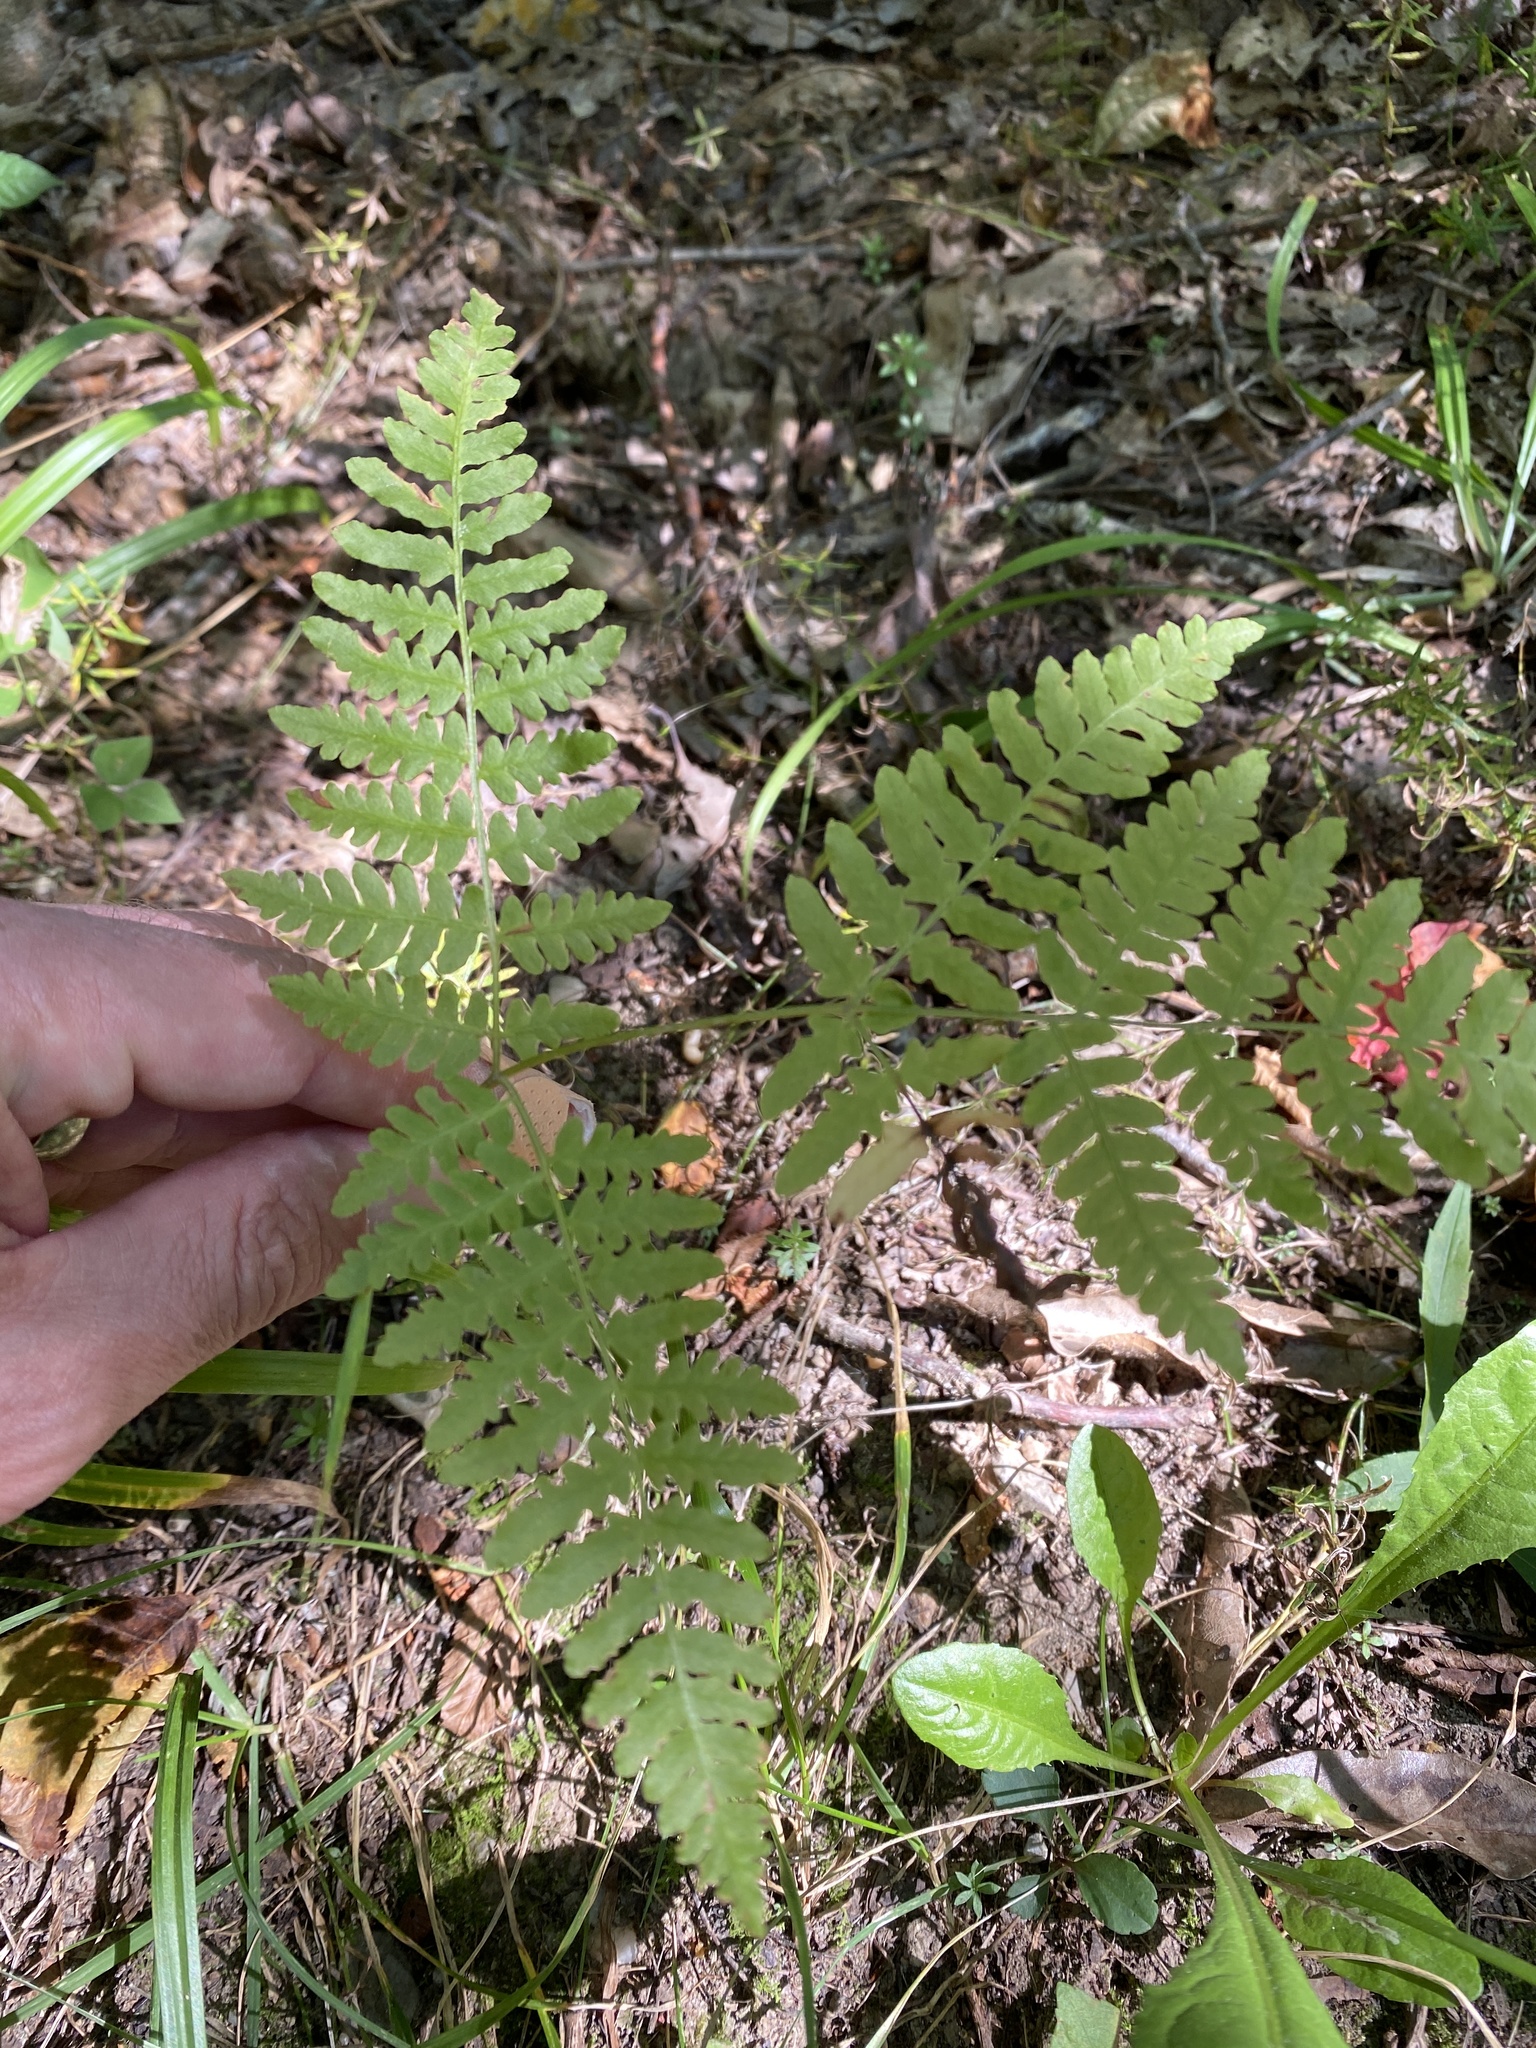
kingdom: Plantae
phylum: Tracheophyta
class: Polypodiopsida
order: Polypodiales
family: Dennstaedtiaceae
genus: Pteridium
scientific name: Pteridium aquilinum
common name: Bracken
